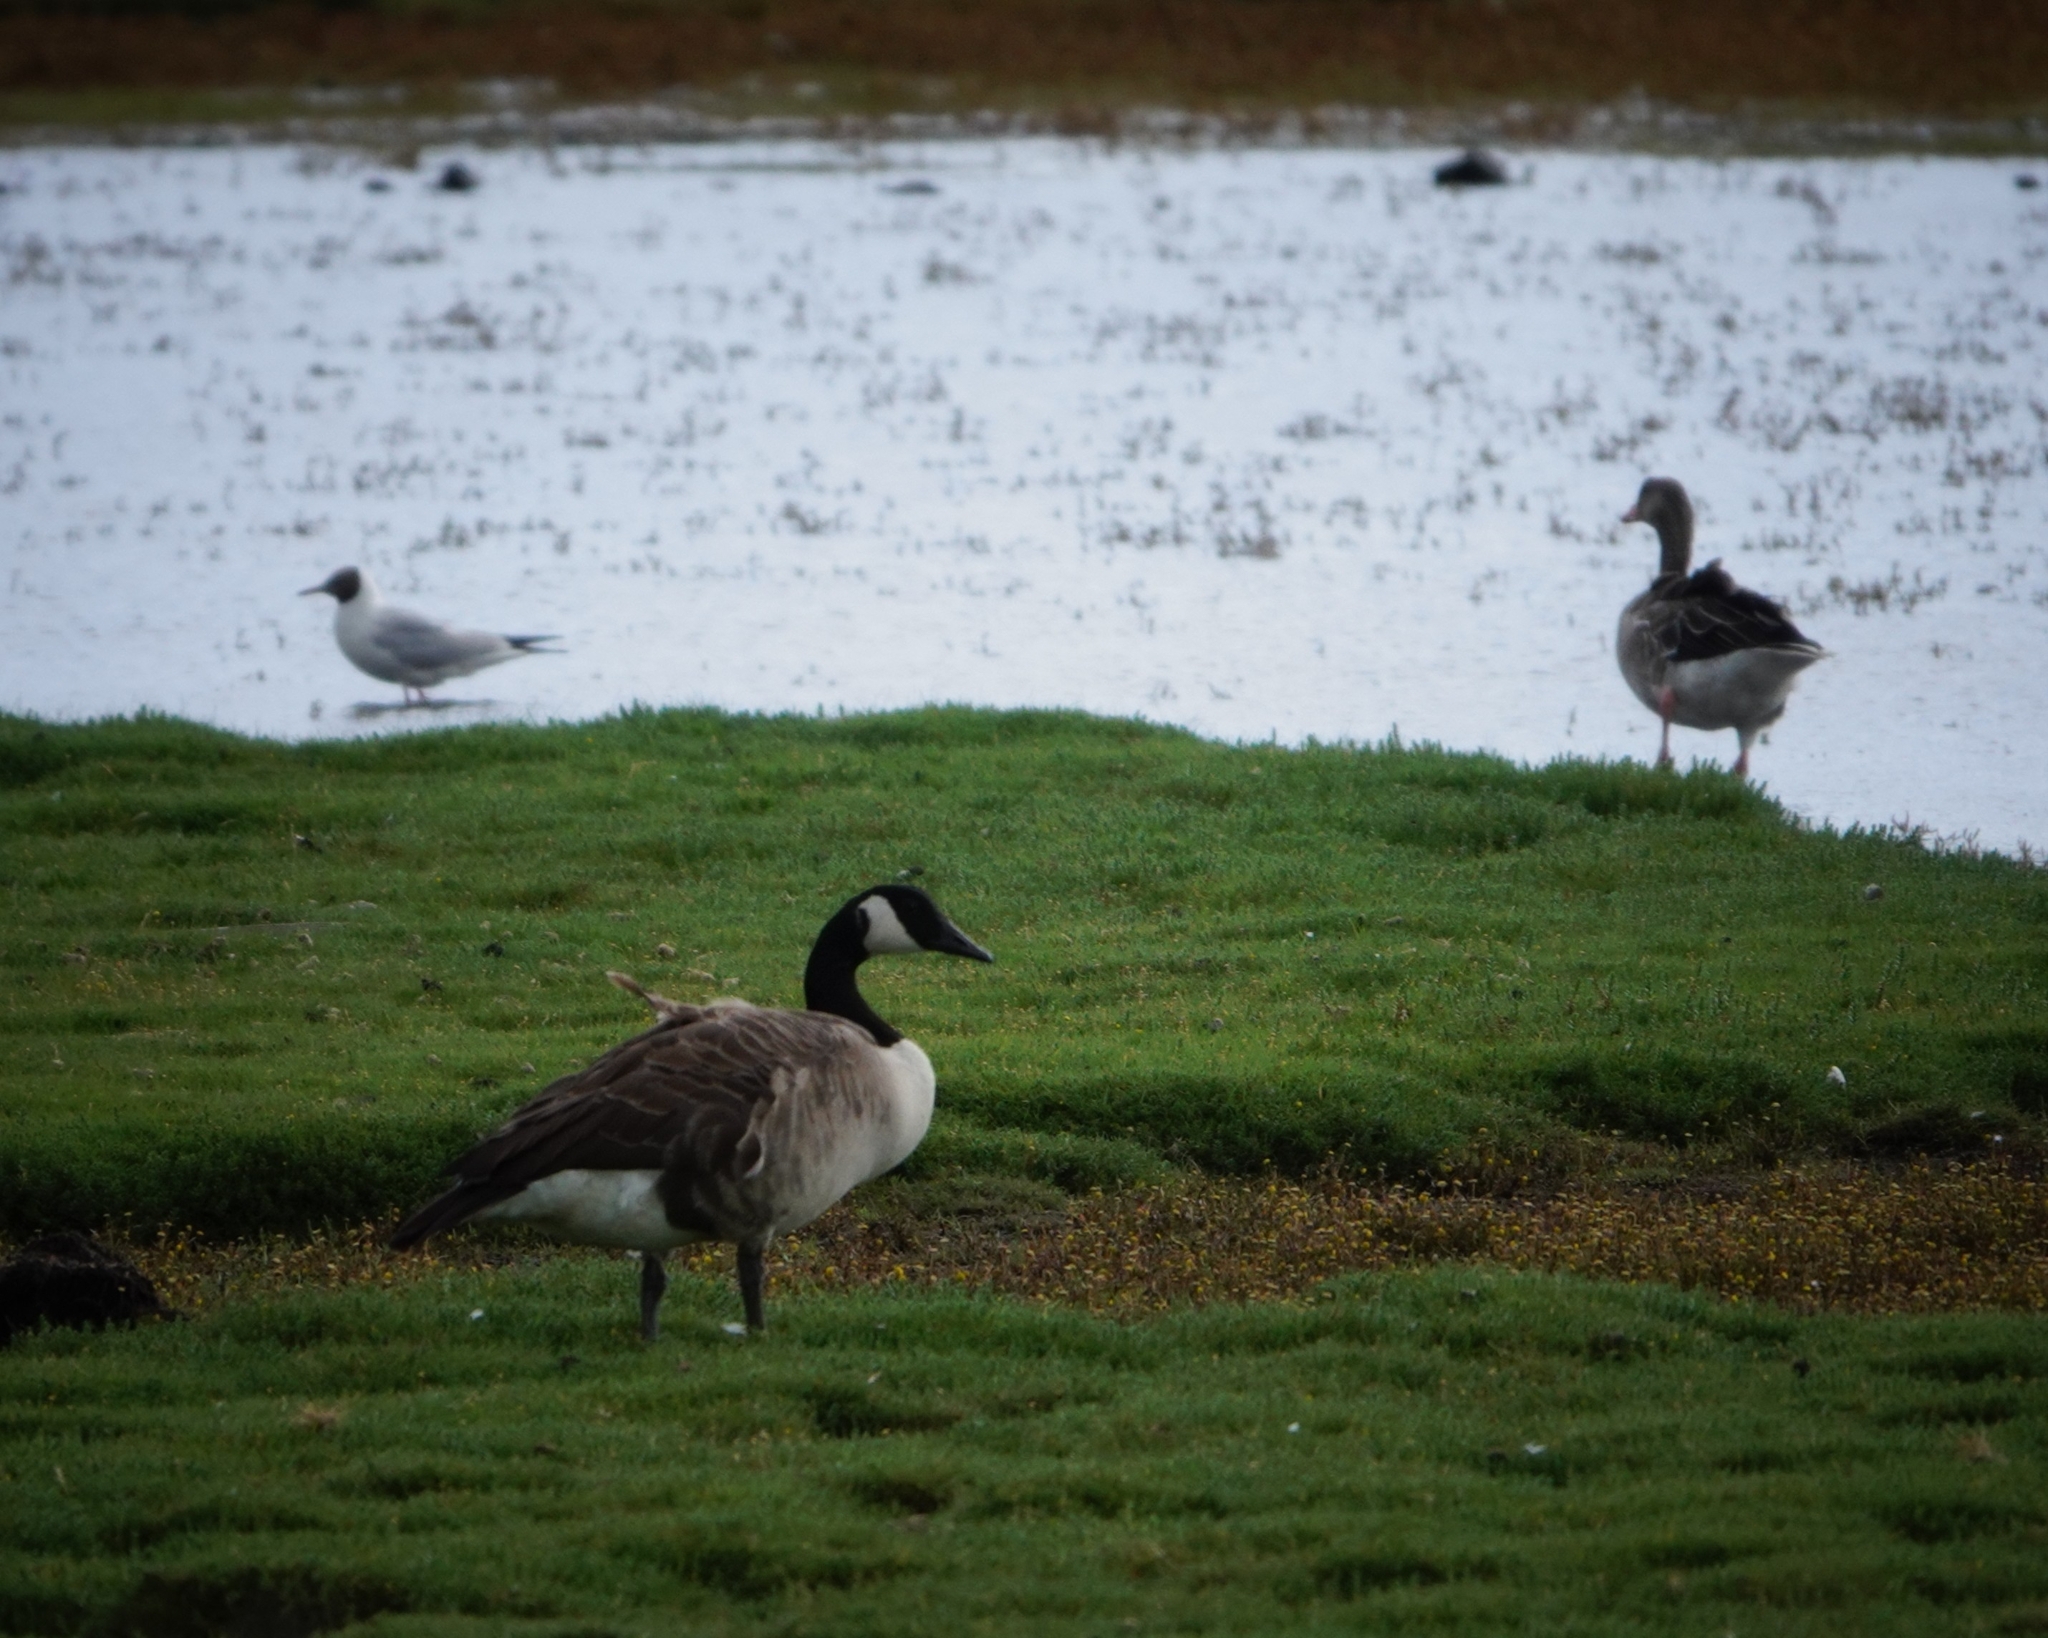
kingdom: Animalia
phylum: Chordata
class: Aves
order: Anseriformes
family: Anatidae
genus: Branta
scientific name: Branta canadensis
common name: Canada goose
